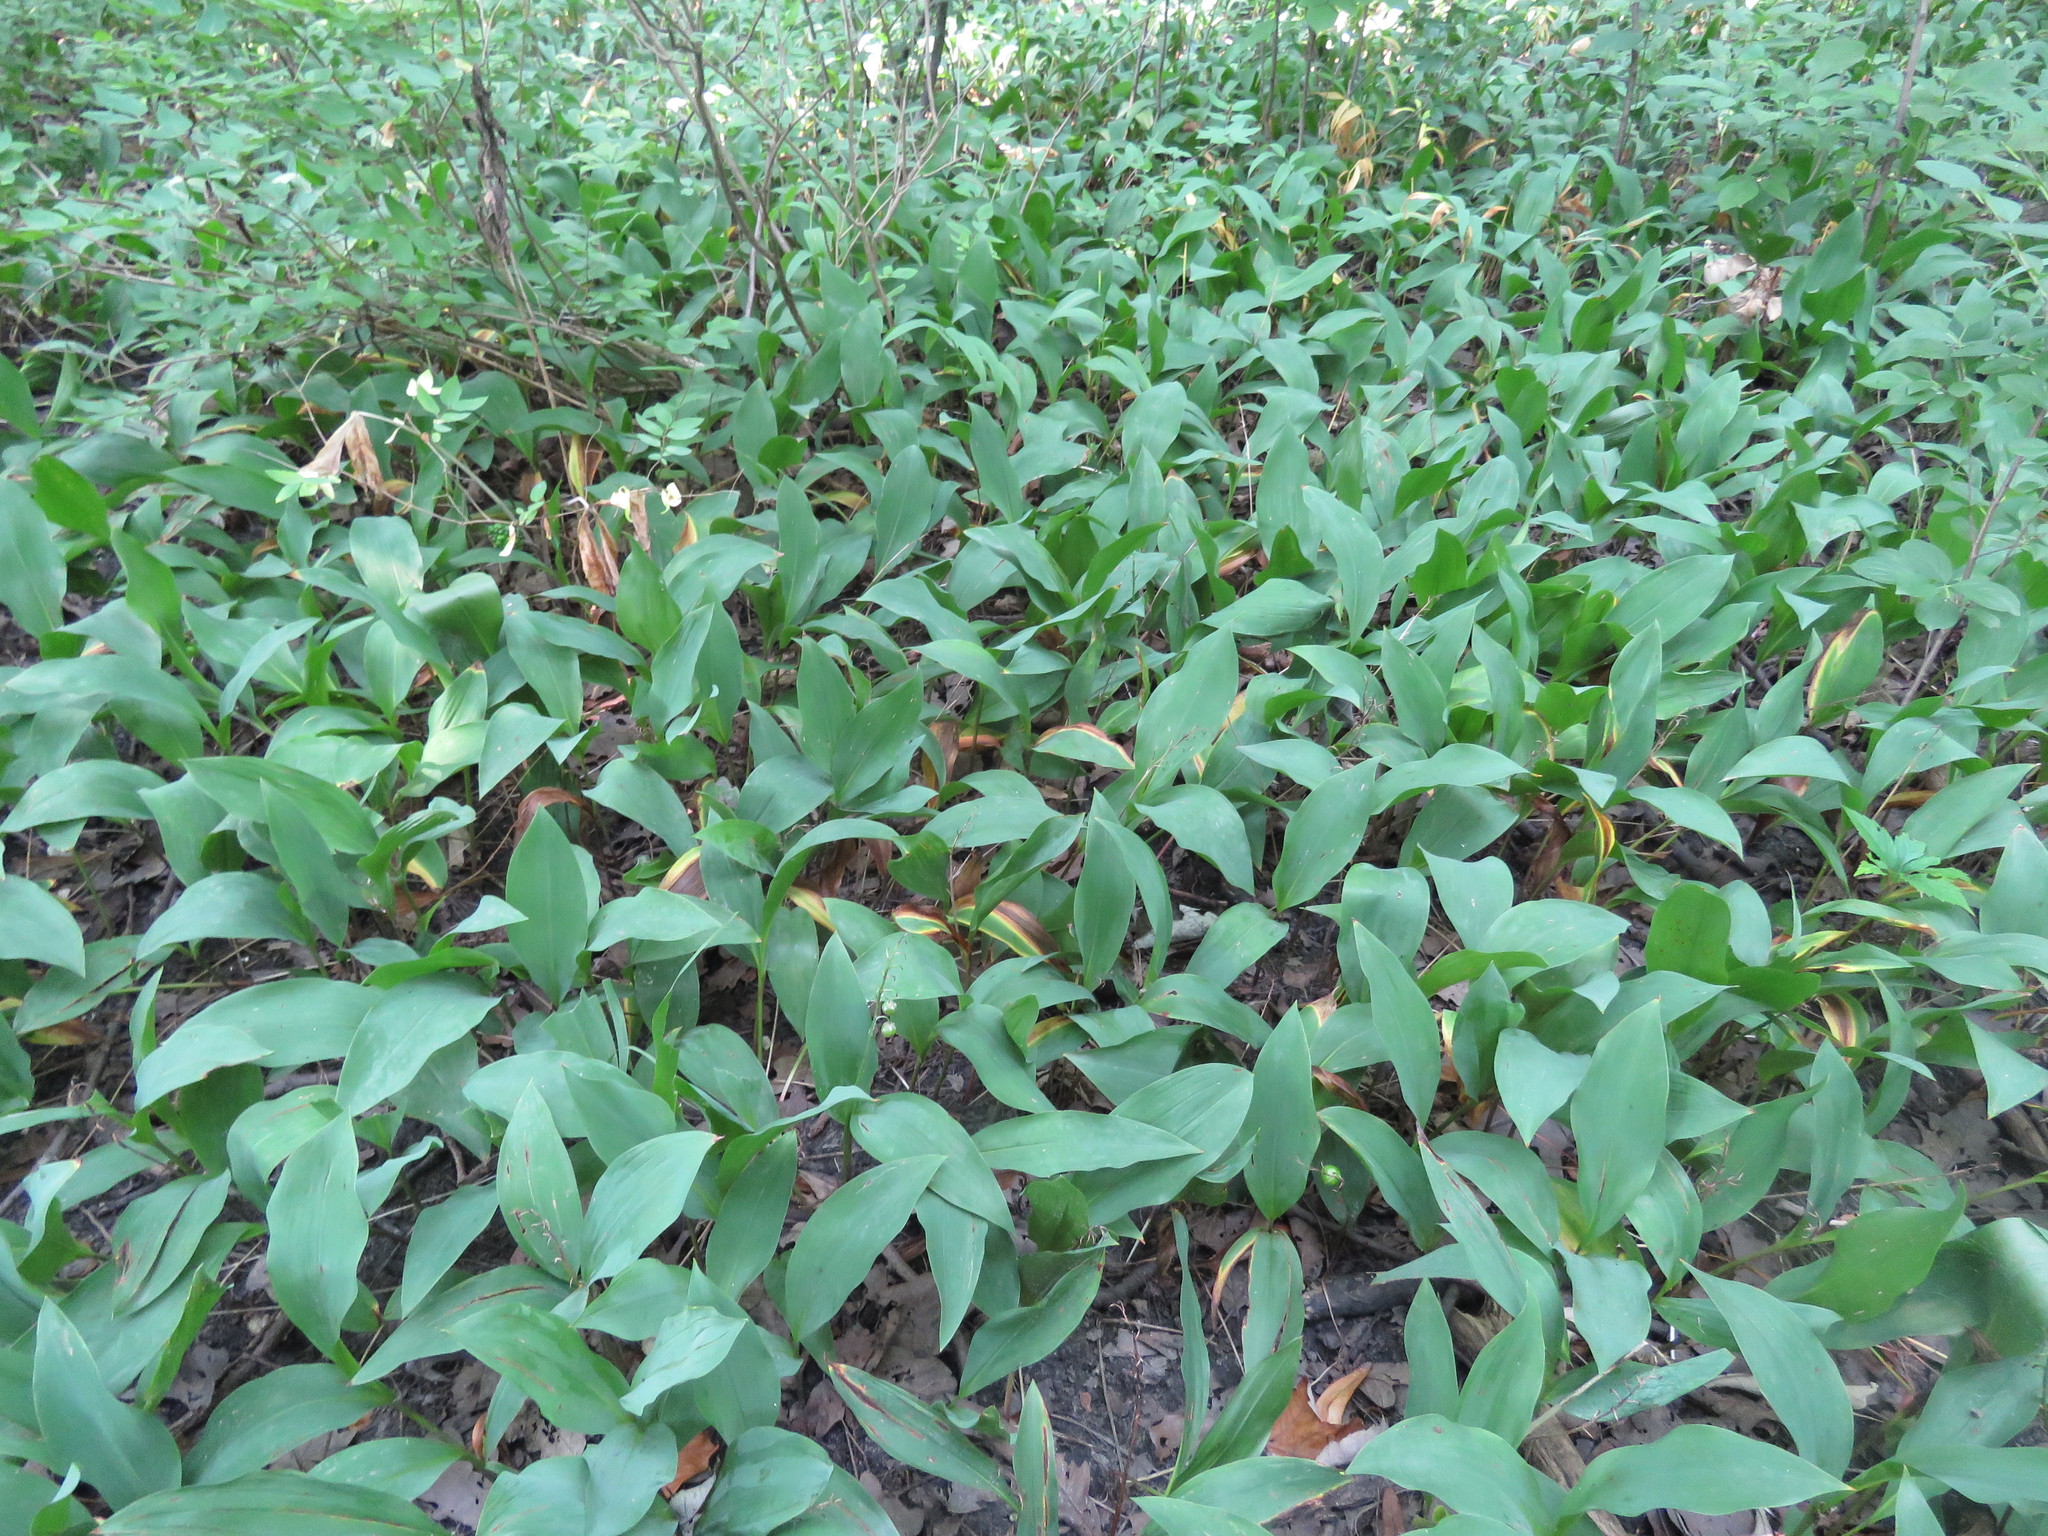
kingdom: Plantae
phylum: Tracheophyta
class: Liliopsida
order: Asparagales
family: Asparagaceae
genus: Convallaria
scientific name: Convallaria majalis
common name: Lily-of-the-valley
